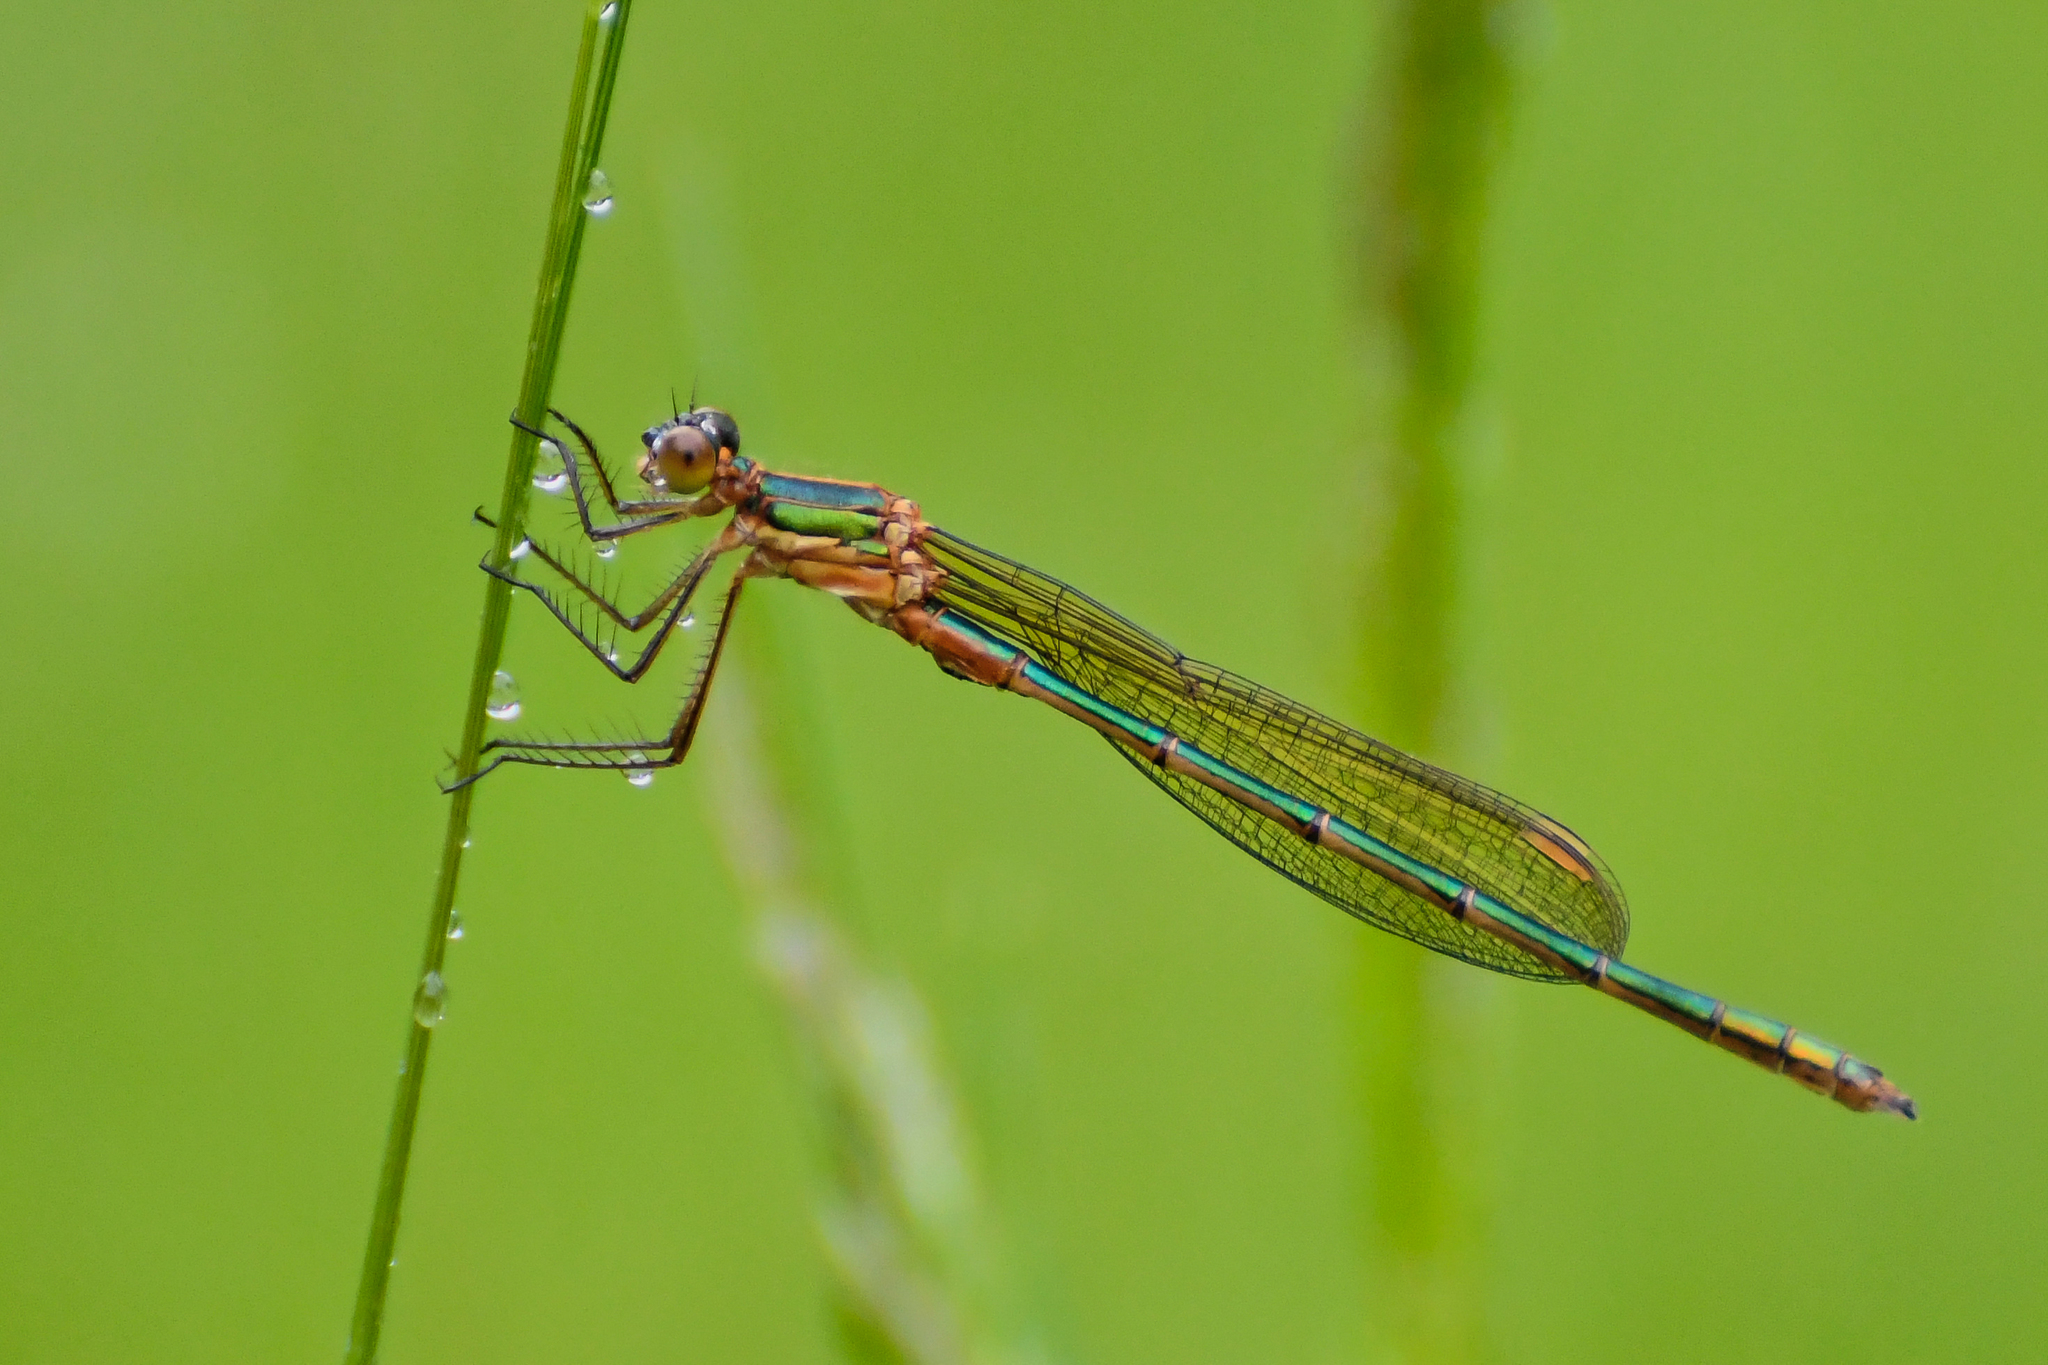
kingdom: Animalia
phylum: Arthropoda
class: Insecta
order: Odonata
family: Lestidae
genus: Lestes
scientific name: Lestes sponsa
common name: Common spreadwing
